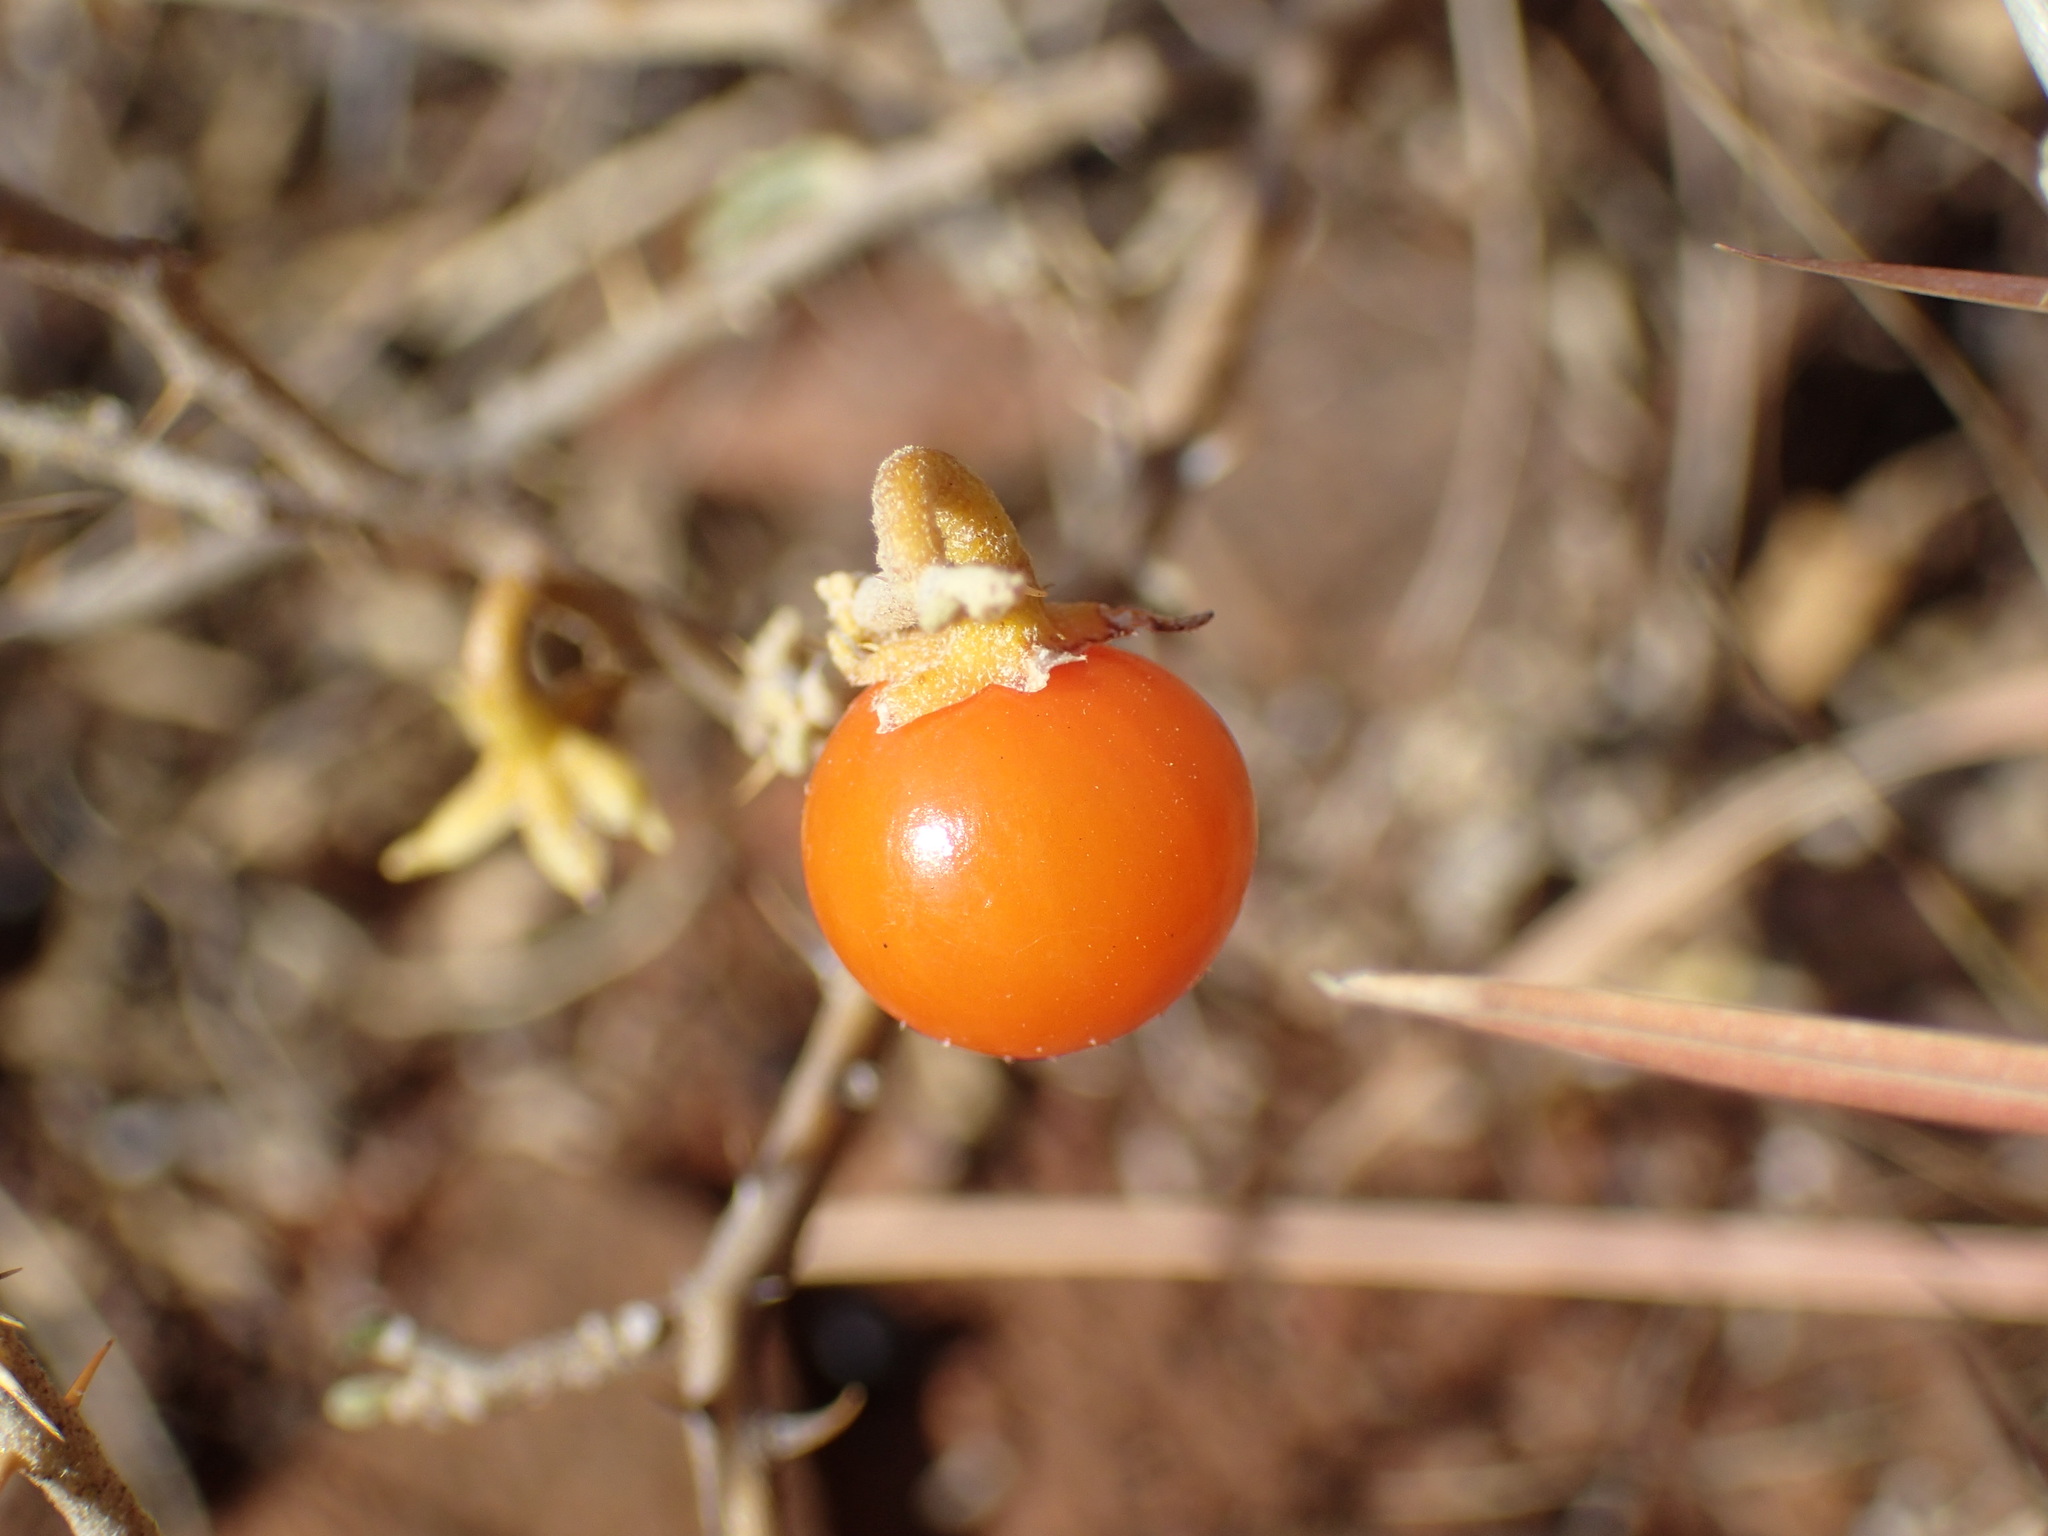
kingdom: Plantae
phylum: Tracheophyta
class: Magnoliopsida
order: Solanales
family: Solanaceae
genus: Solanum
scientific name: Solanum capense
